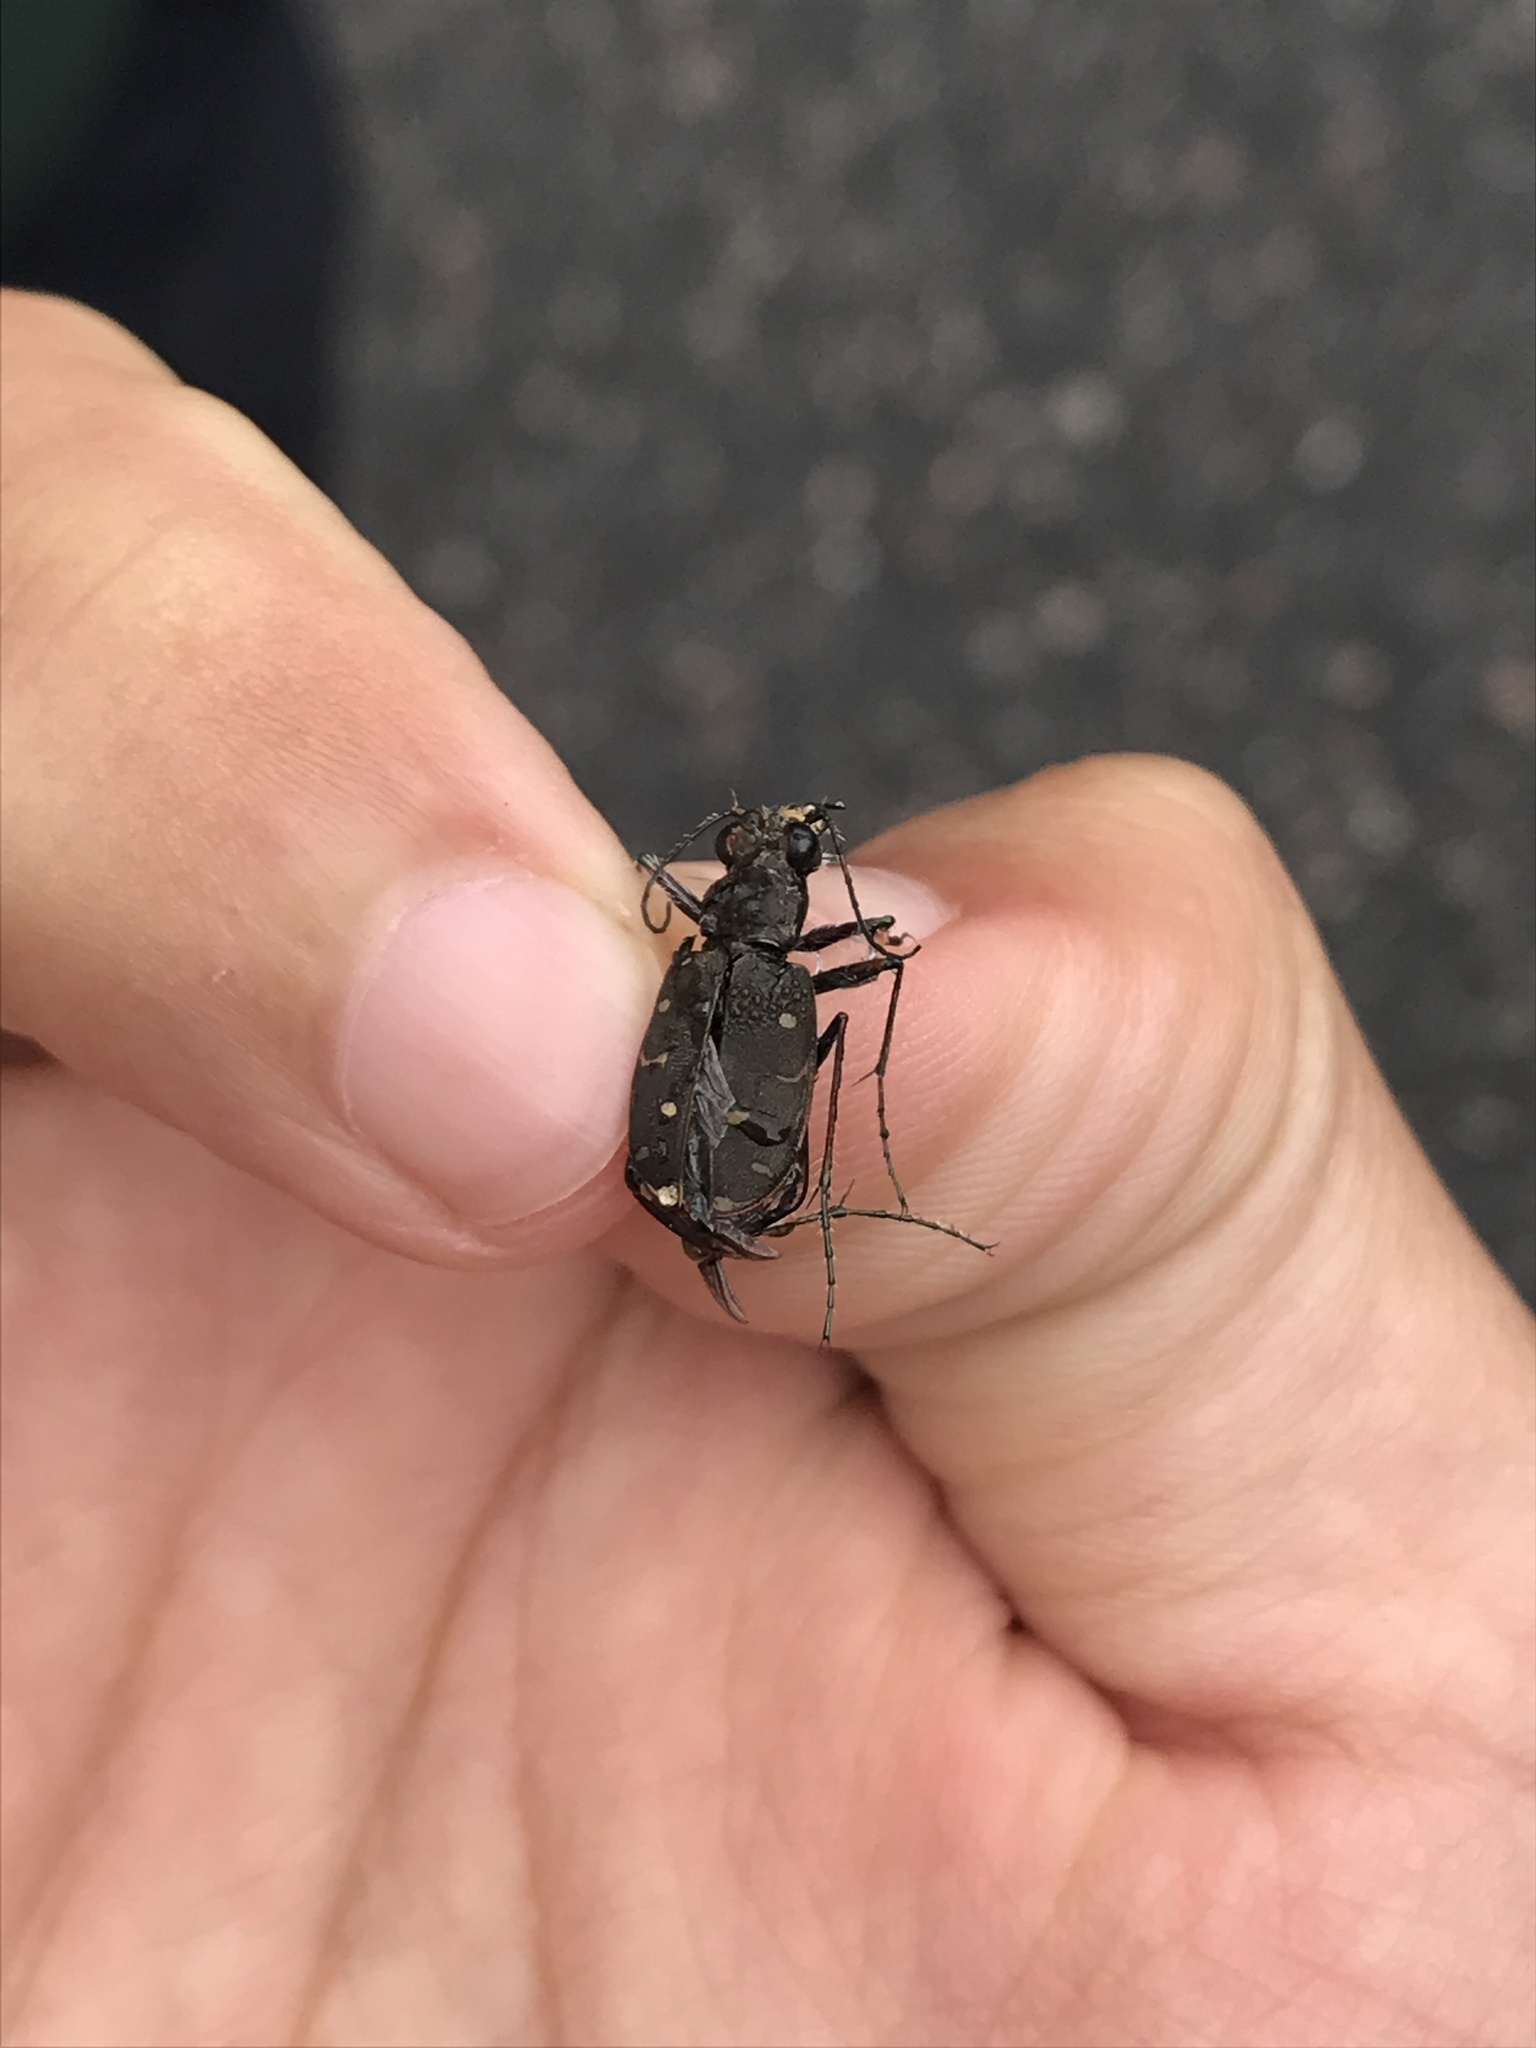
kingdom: Animalia
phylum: Arthropoda
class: Insecta
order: Coleoptera
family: Carabidae
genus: Cicindela
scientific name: Cicindela duodecimguttata
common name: Twelve-spotted tiger beetle
